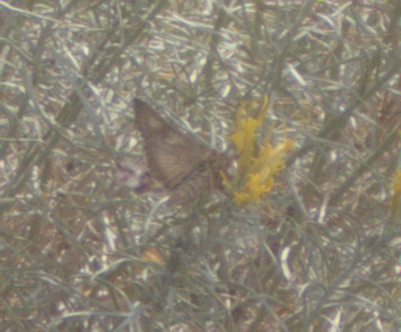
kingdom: Animalia
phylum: Arthropoda
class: Insecta
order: Lepidoptera
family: Noctuidae
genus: Autographa
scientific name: Autographa californica
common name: Alfalfa looper
